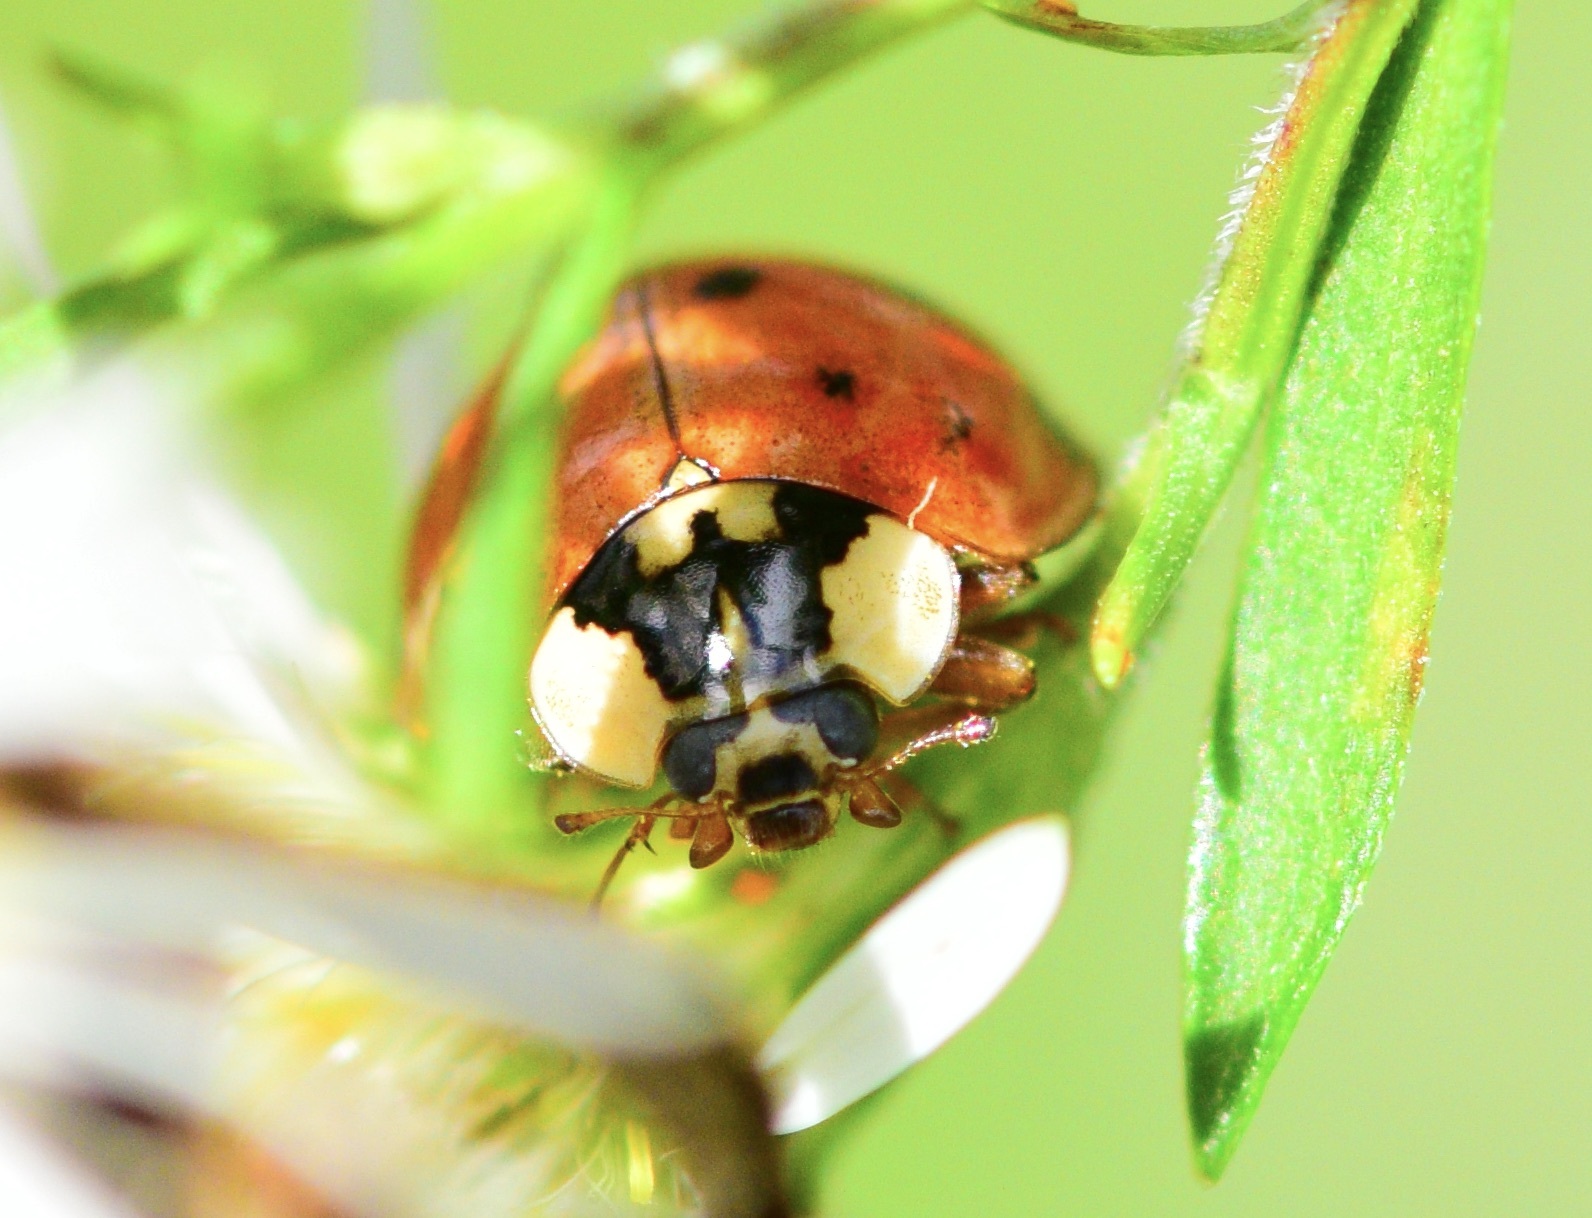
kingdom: Animalia
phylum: Arthropoda
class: Insecta
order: Coleoptera
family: Coccinellidae
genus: Harmonia
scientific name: Harmonia axyridis
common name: Harlequin ladybird
